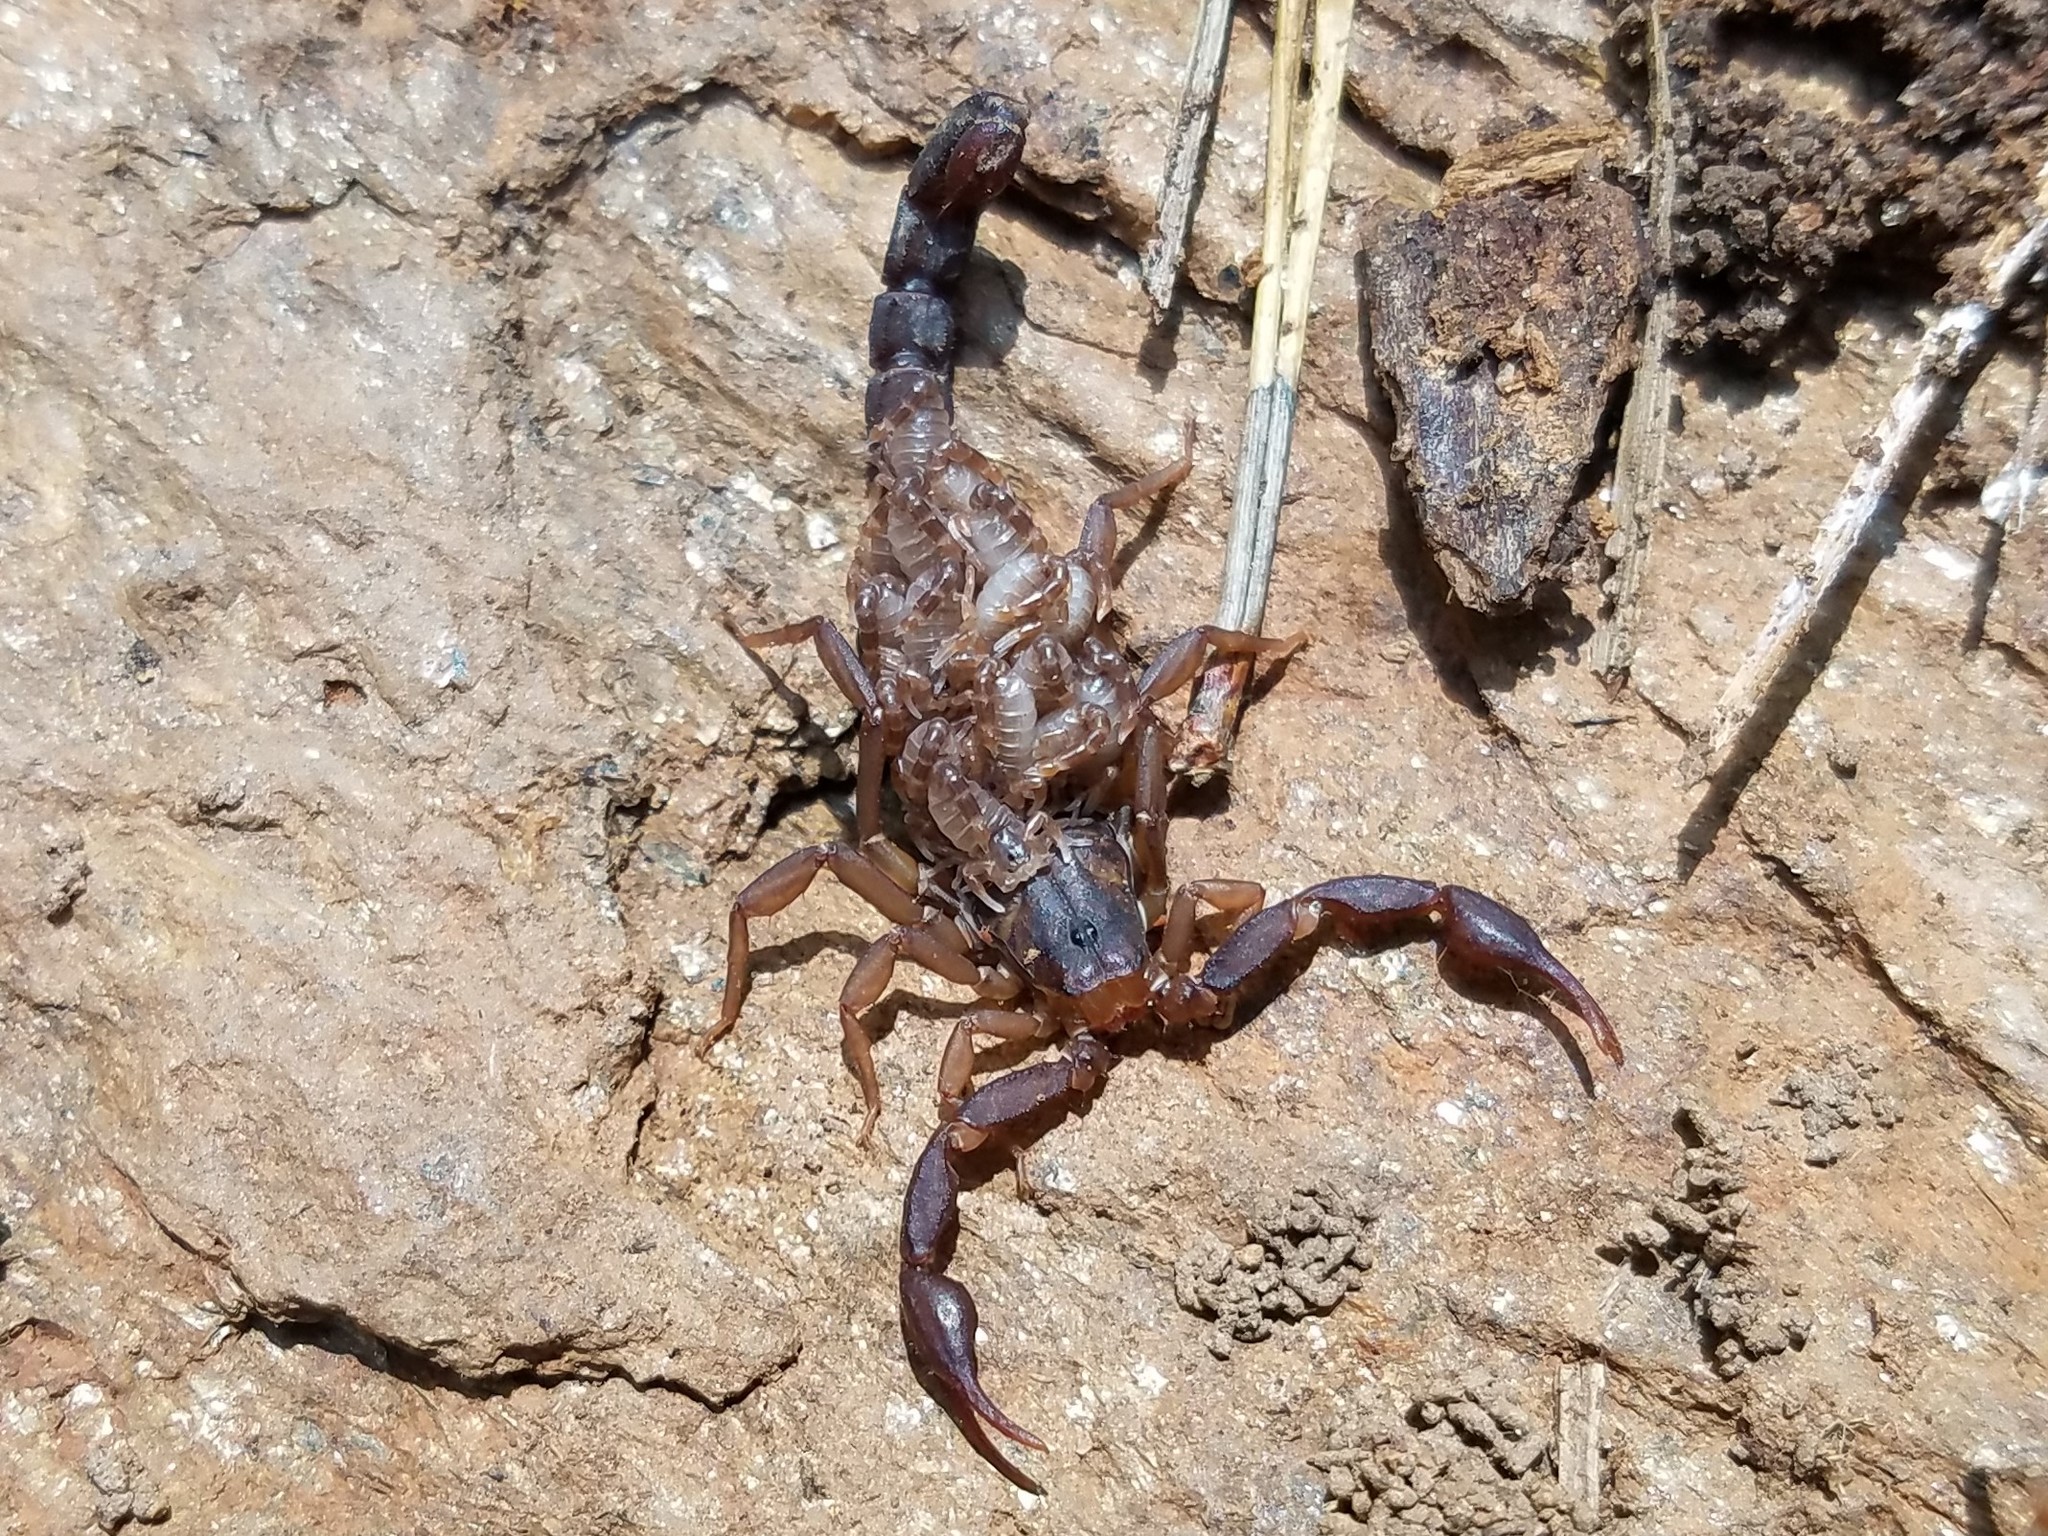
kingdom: Animalia
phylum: Arthropoda
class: Arachnida
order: Scorpiones
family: Vaejovidae
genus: Vaejovis
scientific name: Vaejovis carolinianus
